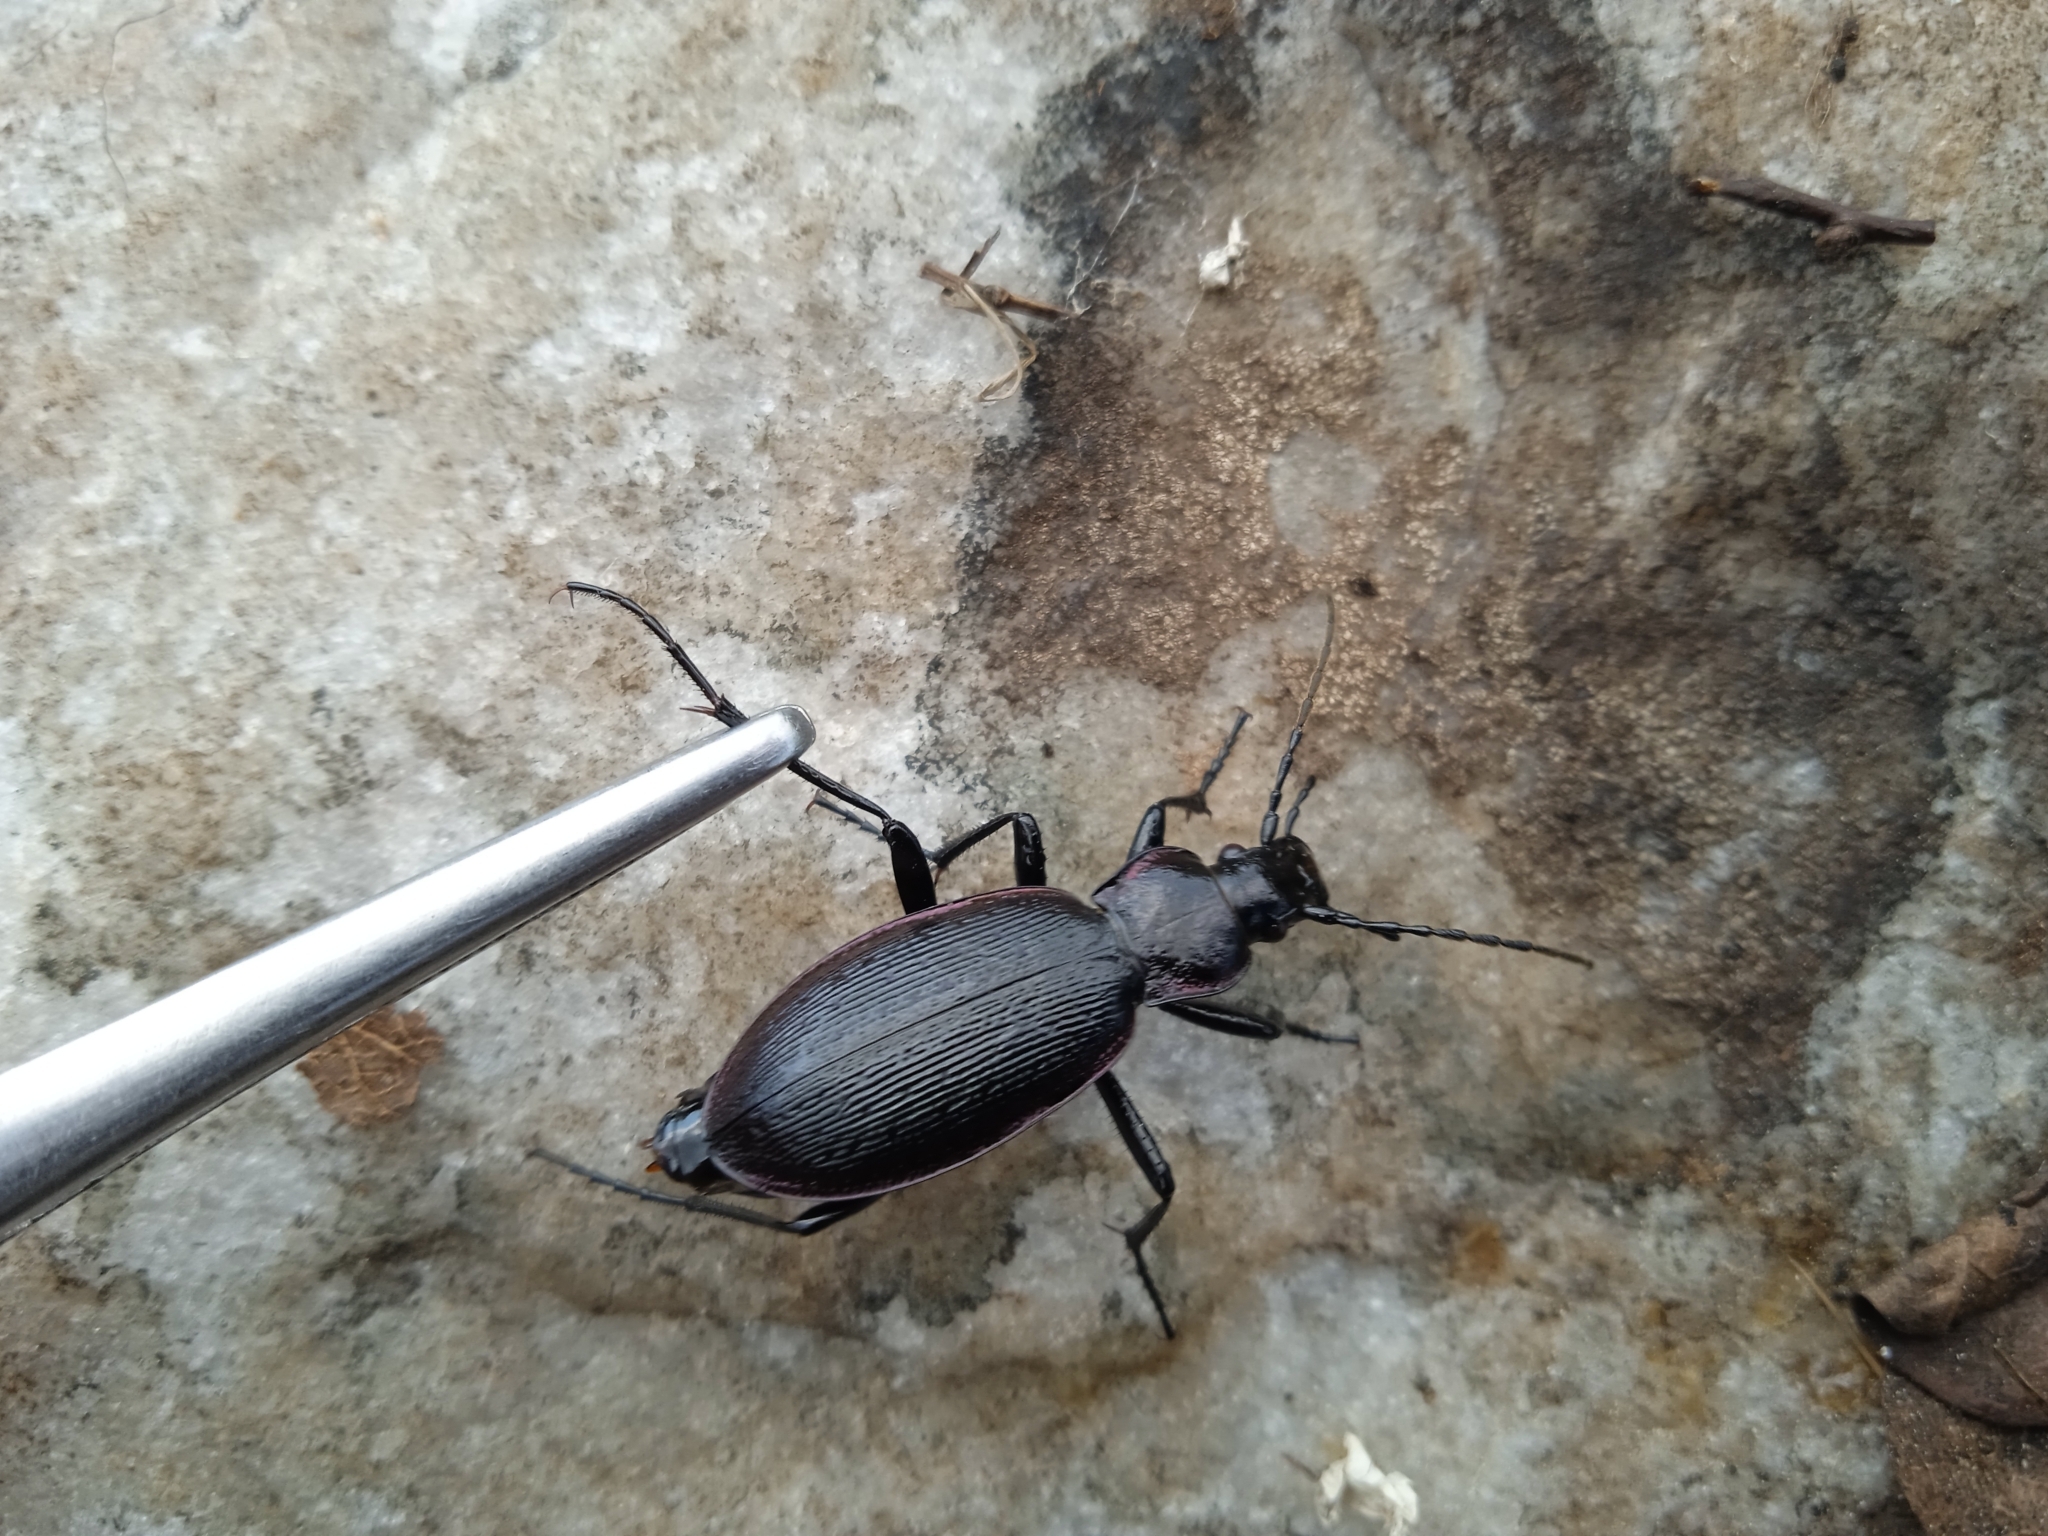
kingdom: Animalia
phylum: Arthropoda
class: Insecta
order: Coleoptera
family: Carabidae
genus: Carabus
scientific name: Carabus karpinskii
